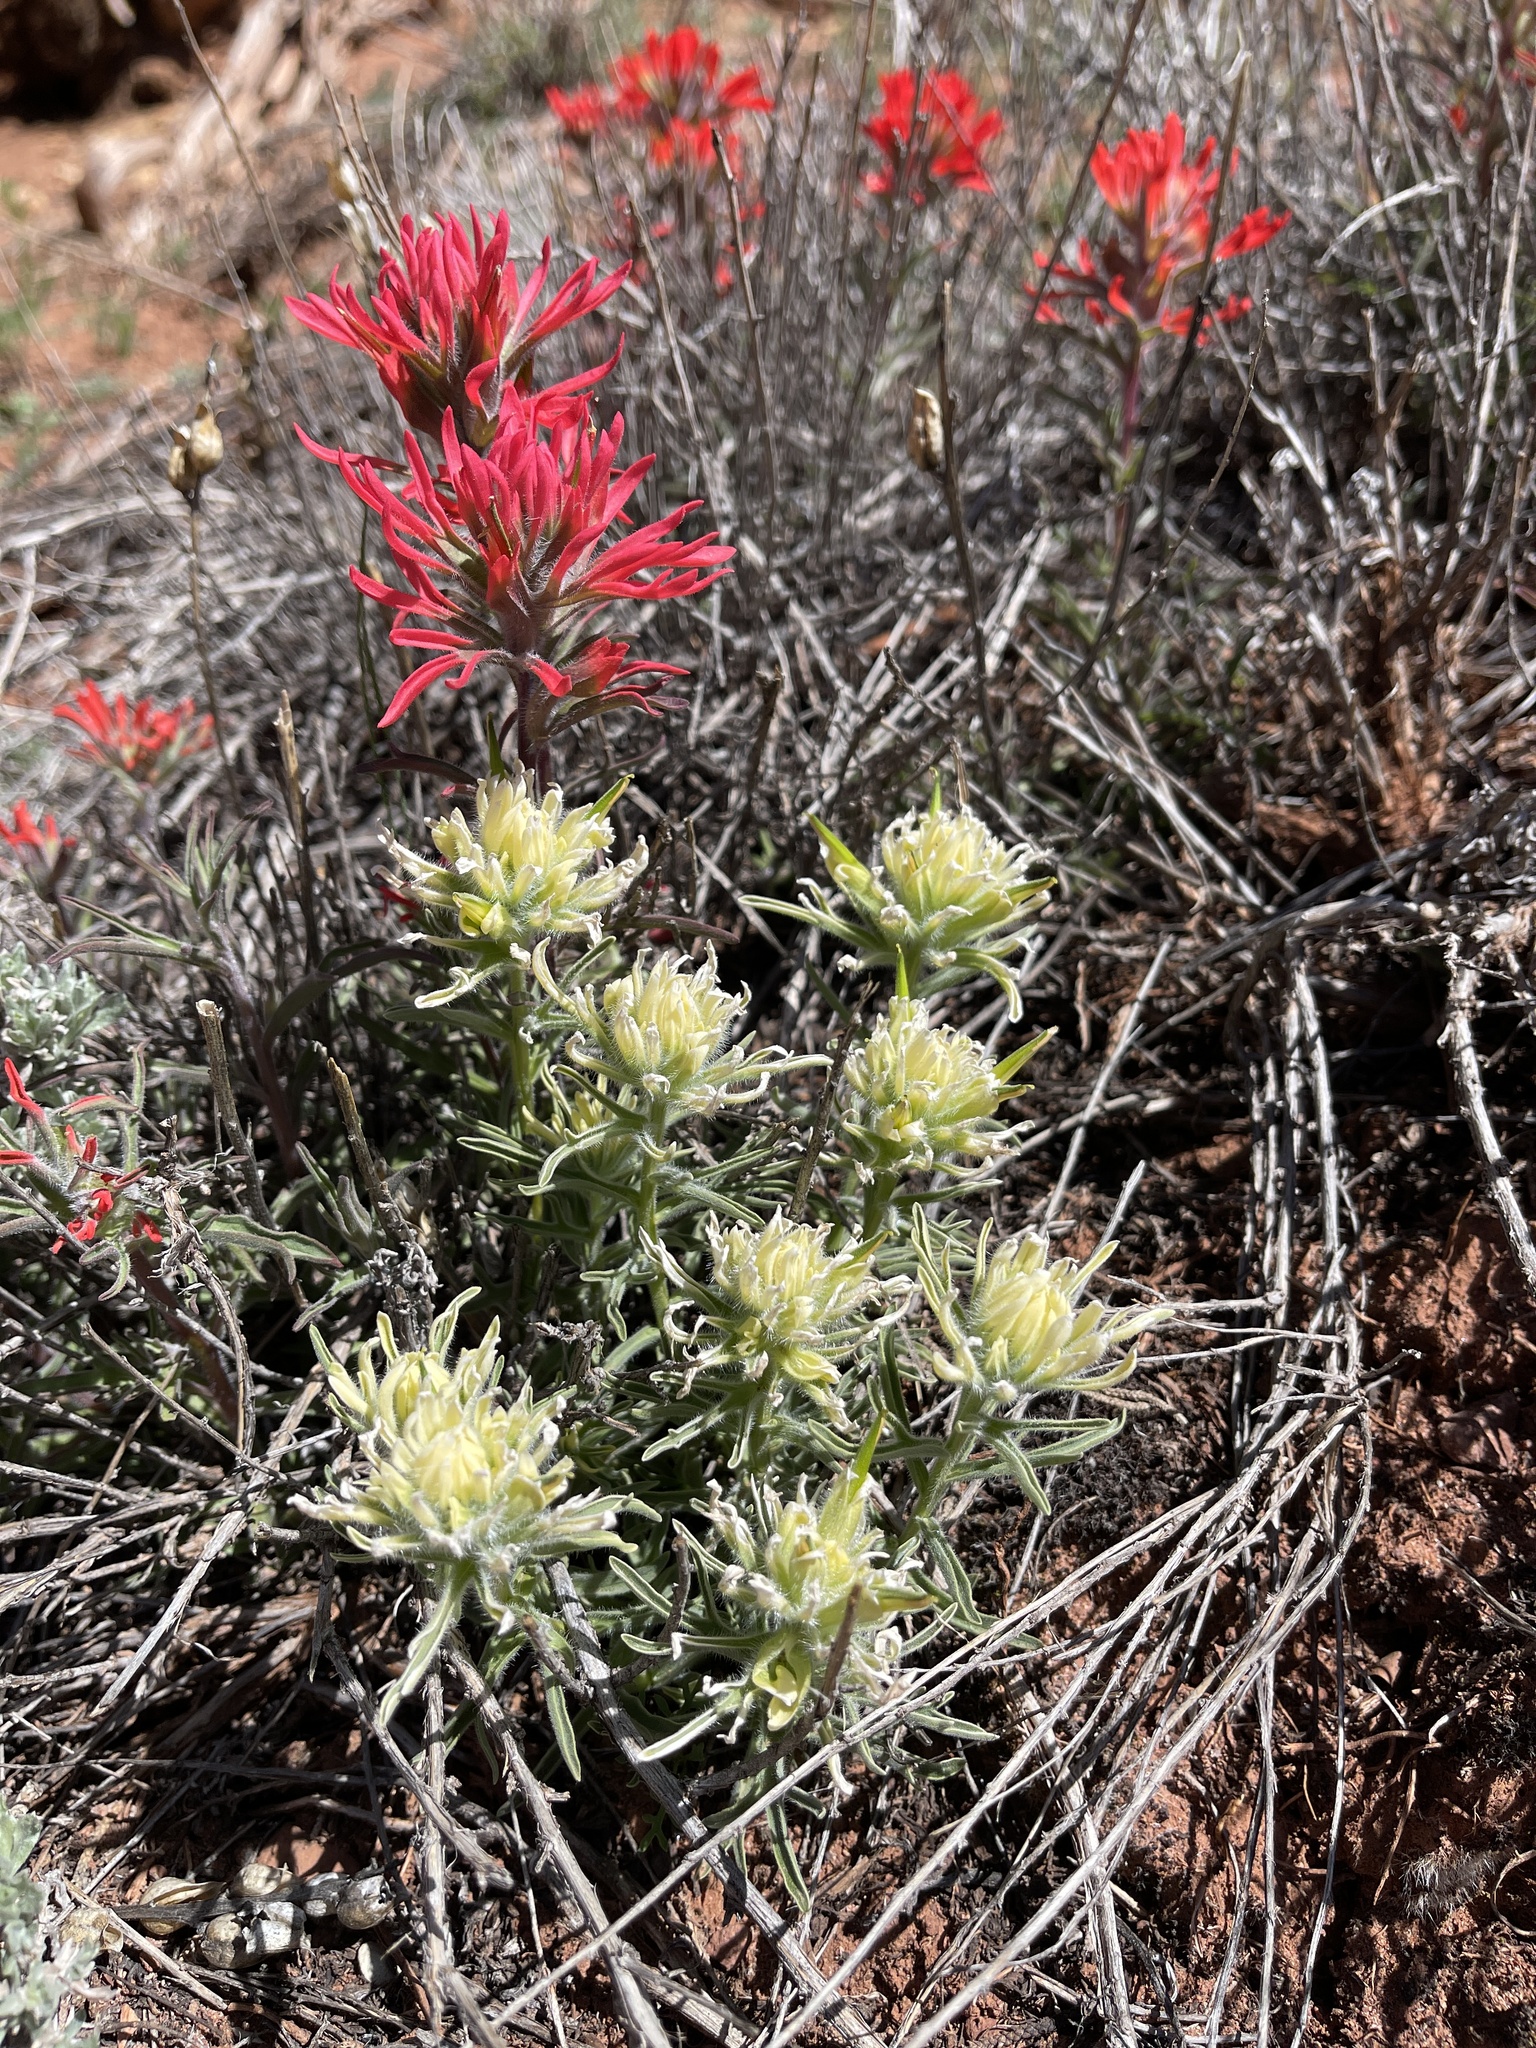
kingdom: Plantae
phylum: Tracheophyta
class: Magnoliopsida
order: Lamiales
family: Orobanchaceae
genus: Castilleja
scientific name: Castilleja chromosa
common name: Desert paintbrush
